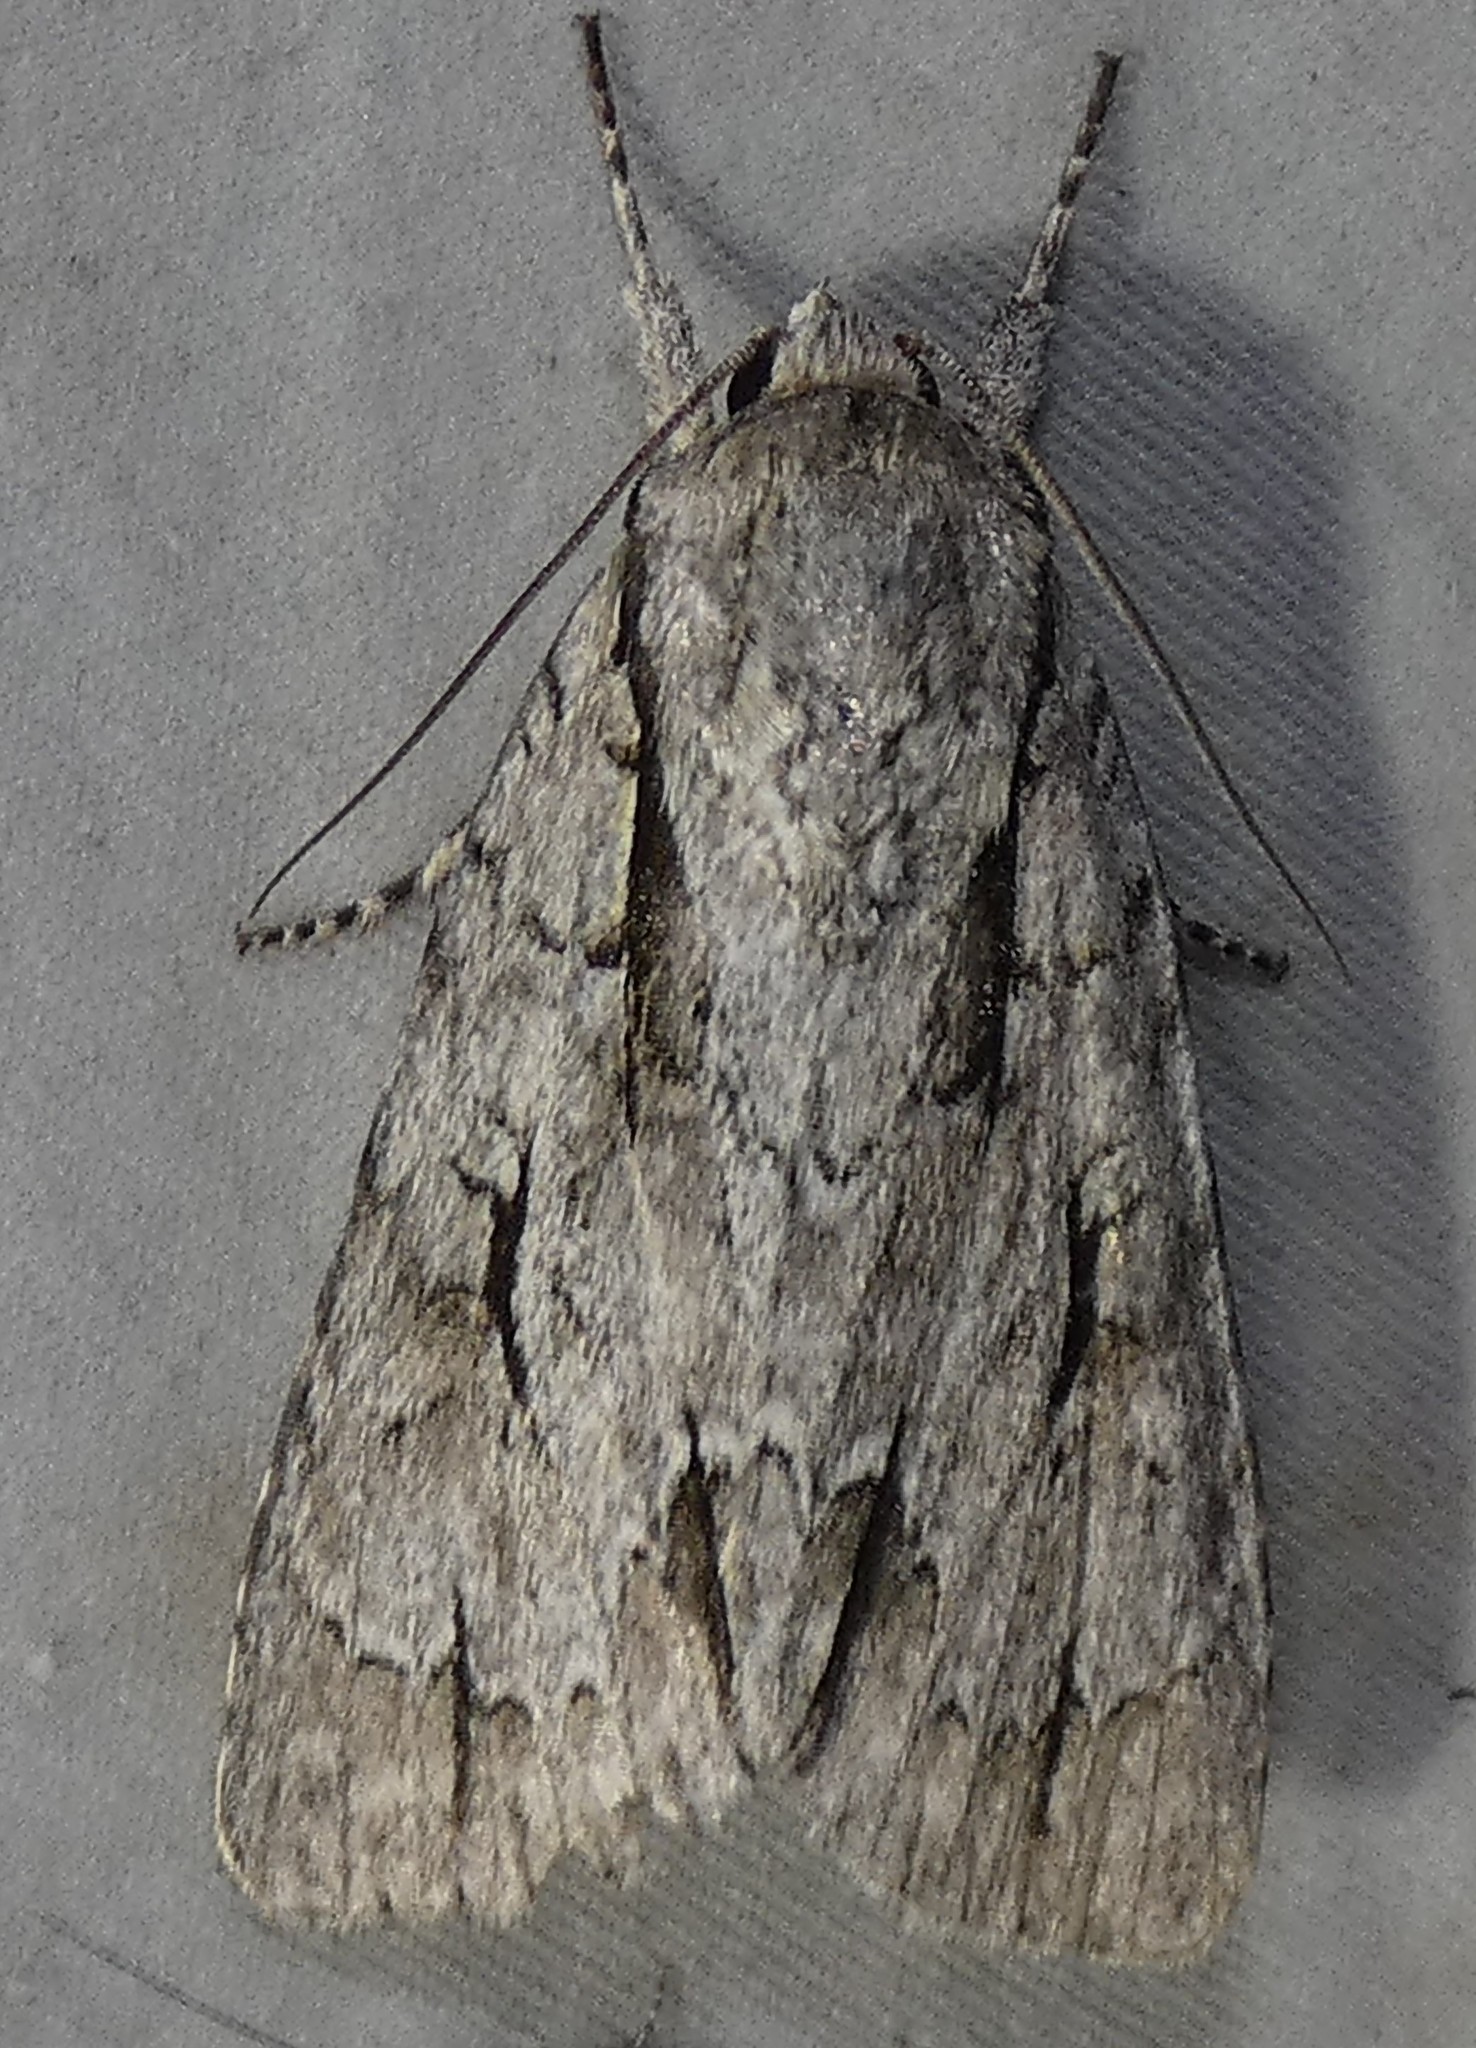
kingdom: Animalia
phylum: Arthropoda
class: Insecta
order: Lepidoptera
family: Noctuidae
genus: Acronicta
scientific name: Acronicta lobeliae
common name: Greater oak dagger
